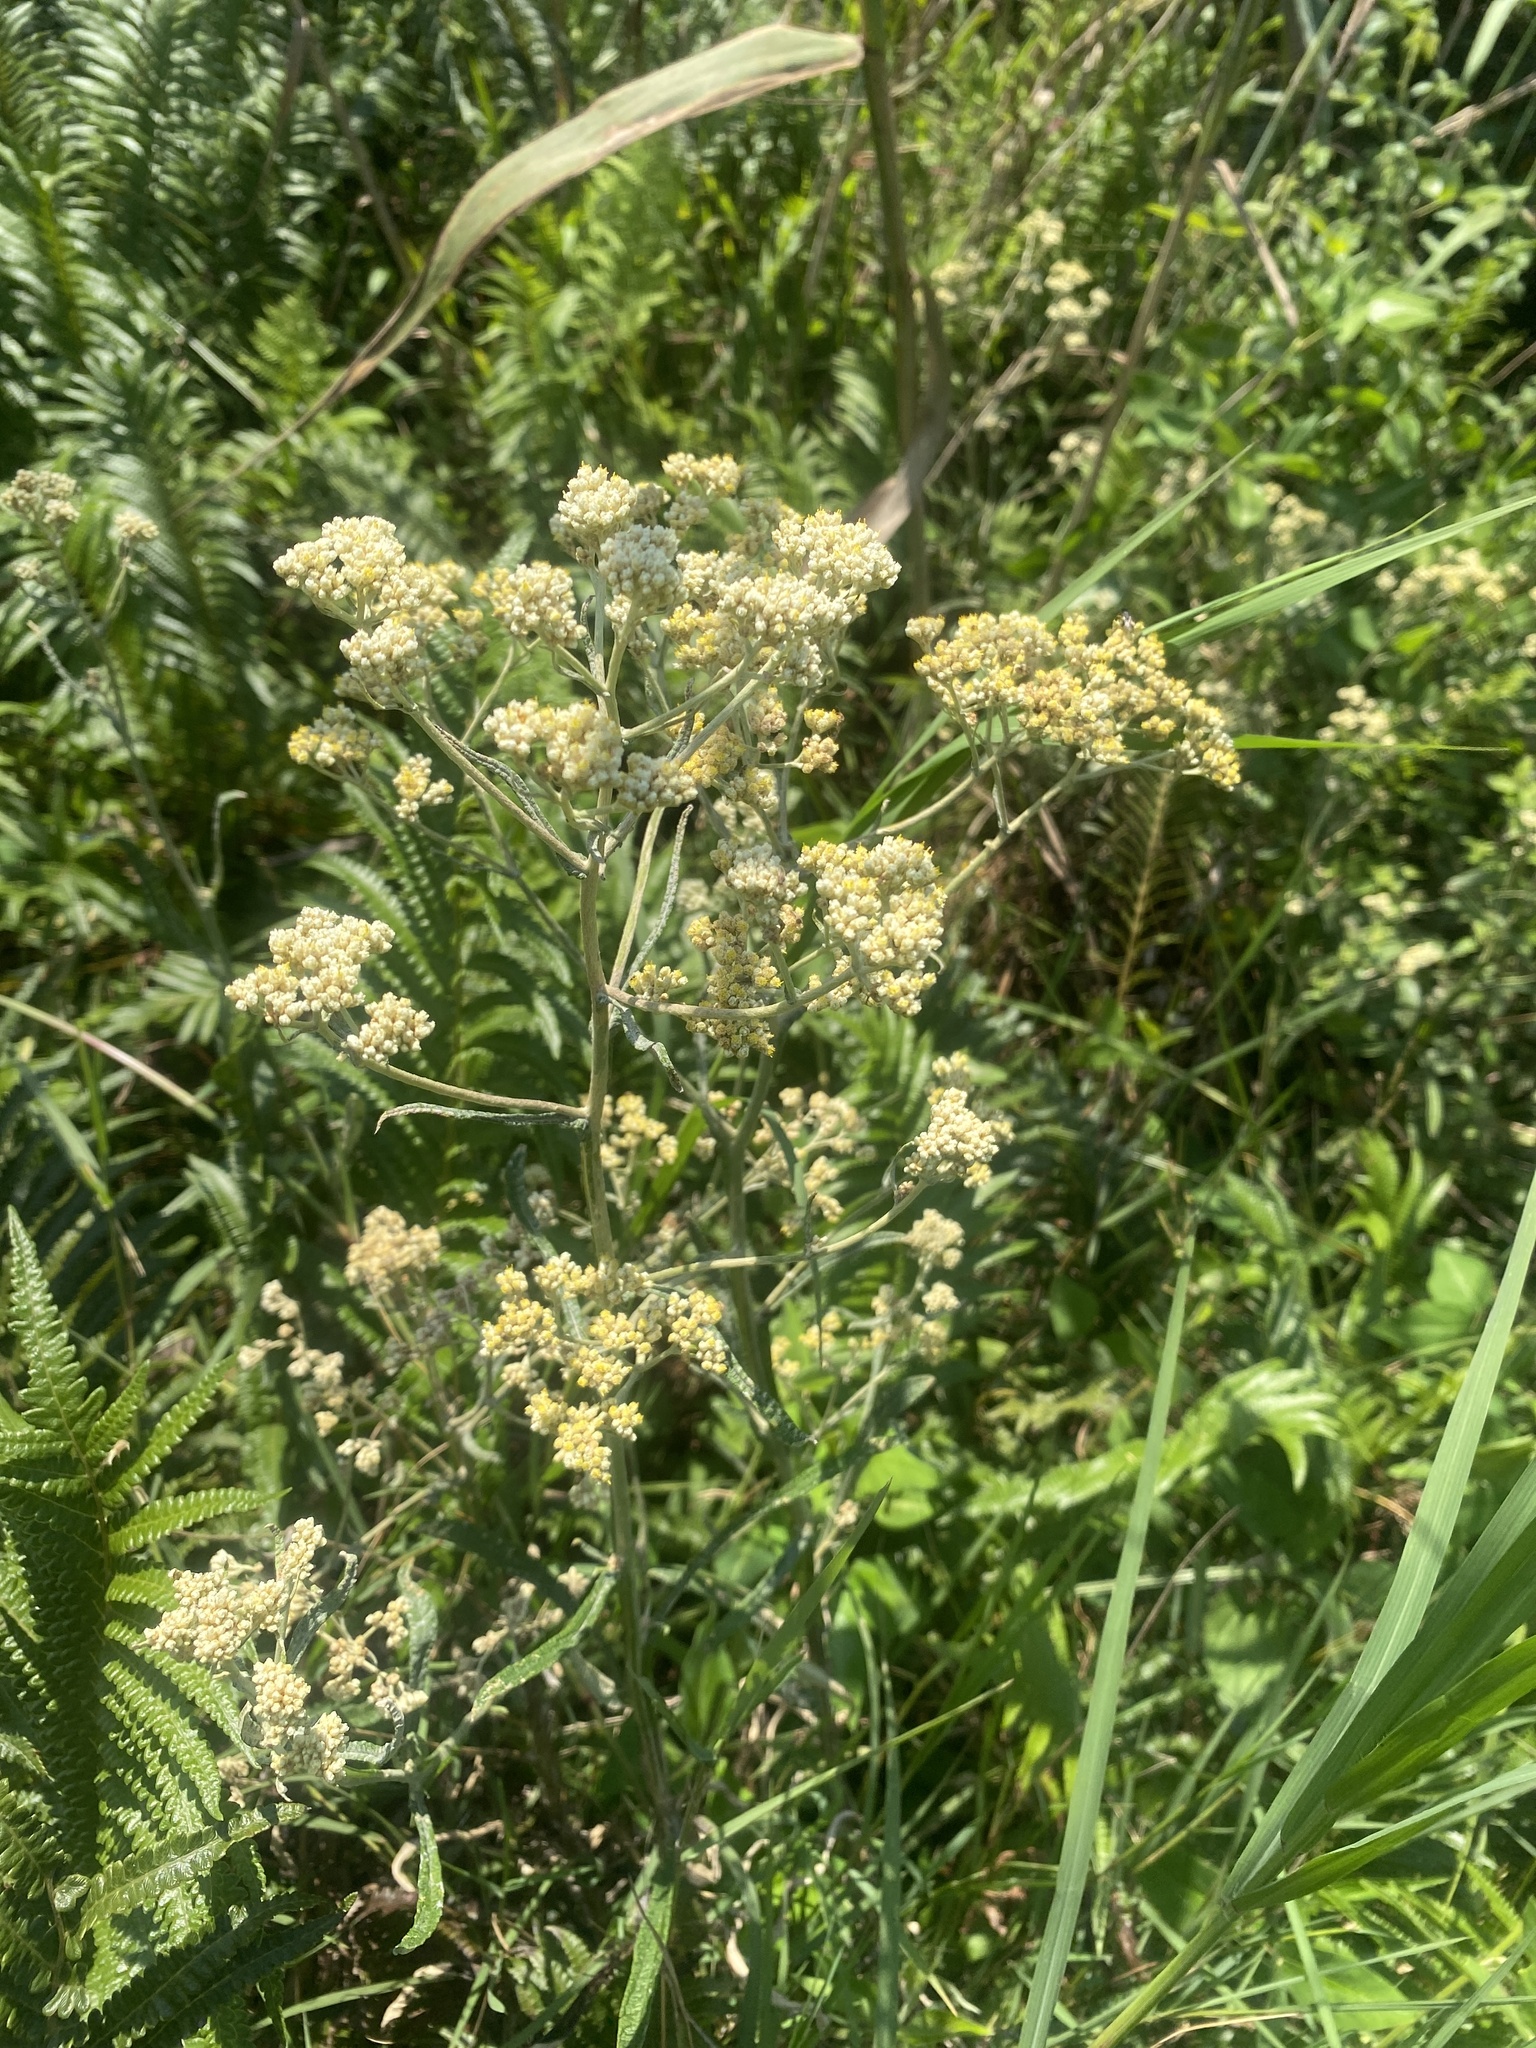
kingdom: Plantae
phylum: Tracheophyta
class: Magnoliopsida
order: Asterales
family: Asteraceae
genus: Helichrysum
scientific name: Helichrysum stenopterum
